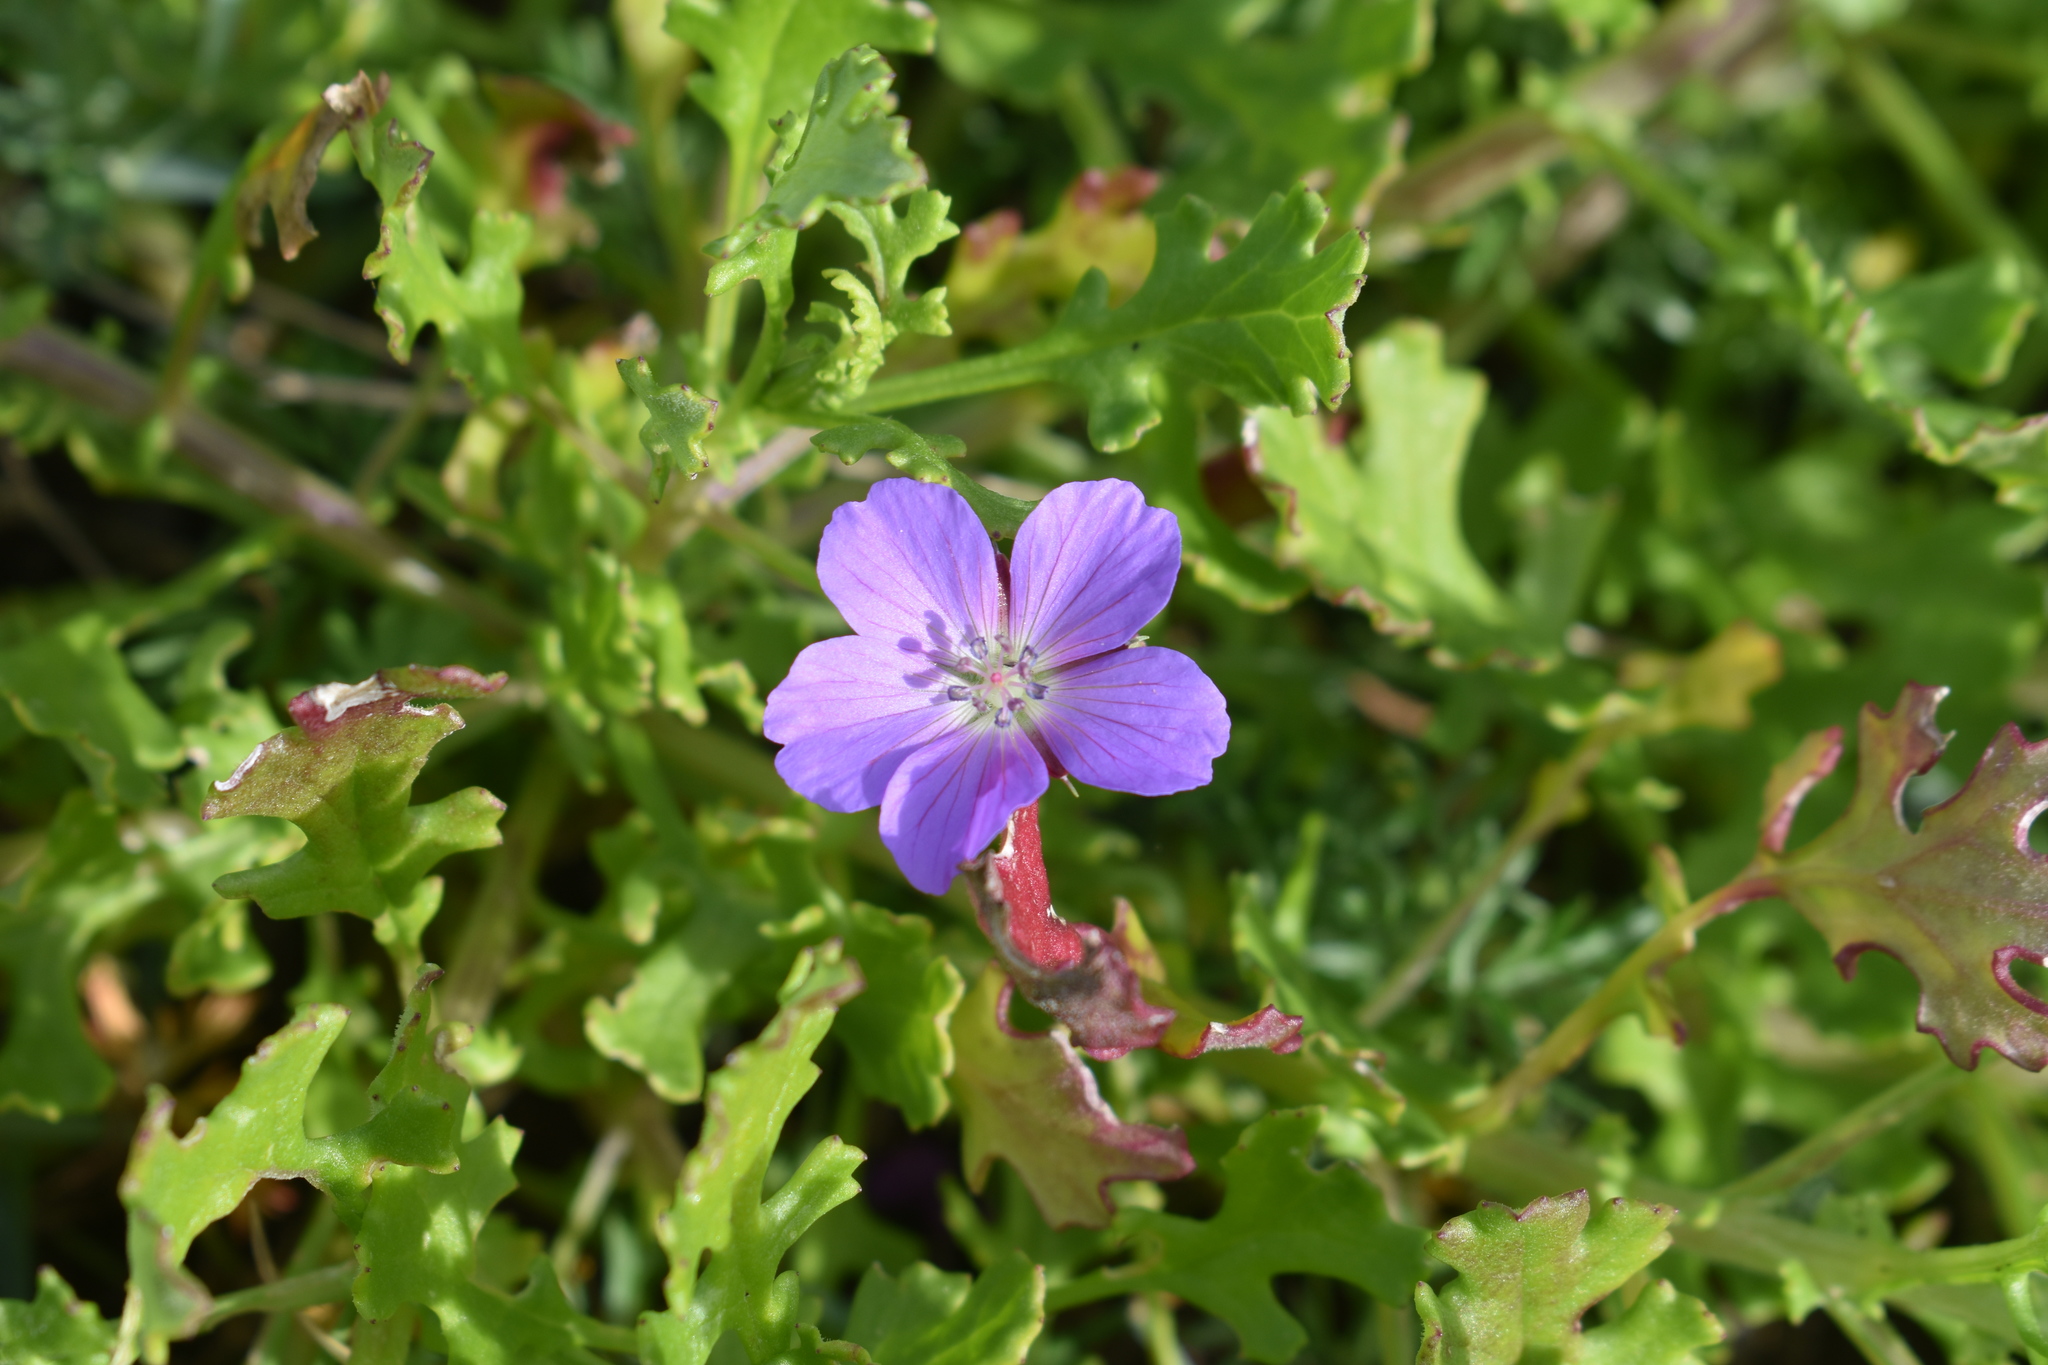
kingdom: Plantae
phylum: Tracheophyta
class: Magnoliopsida
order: Geraniales
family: Geraniaceae
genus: Geranium
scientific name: Geranium incanum
